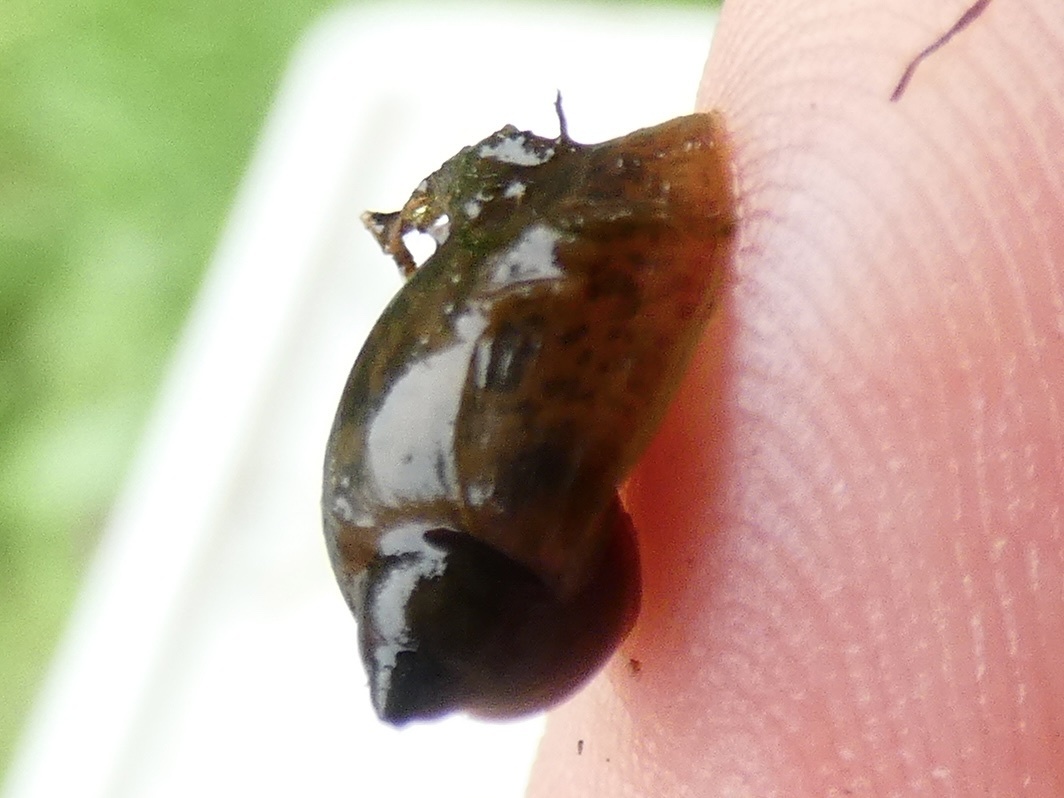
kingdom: Animalia
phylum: Mollusca
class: Gastropoda
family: Lymnaeidae
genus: Ampullaceana
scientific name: Ampullaceana balthica
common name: Wandering pond snail
